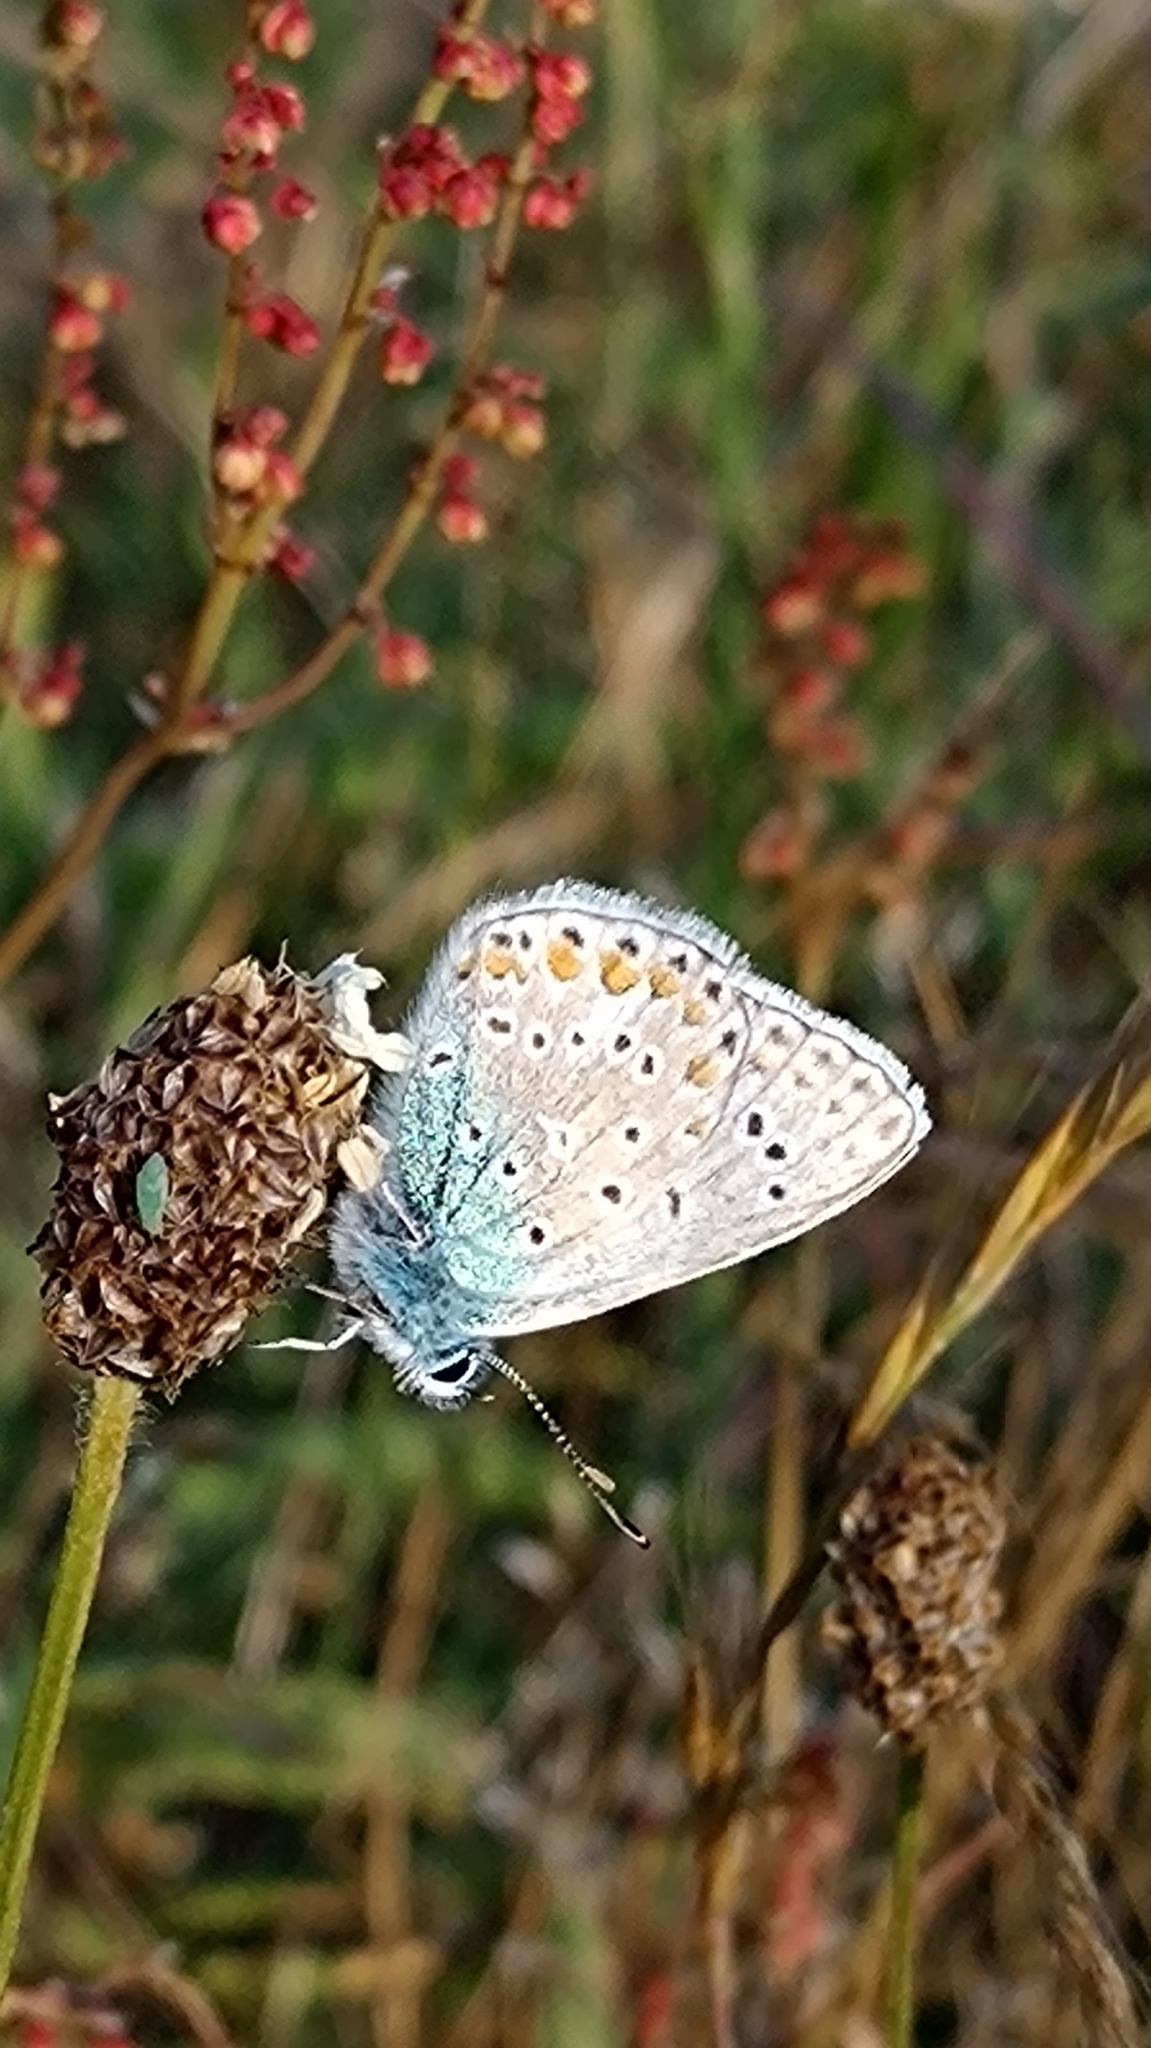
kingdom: Animalia
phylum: Arthropoda
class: Insecta
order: Lepidoptera
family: Lycaenidae
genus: Polyommatus
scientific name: Polyommatus icarus
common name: Common blue
